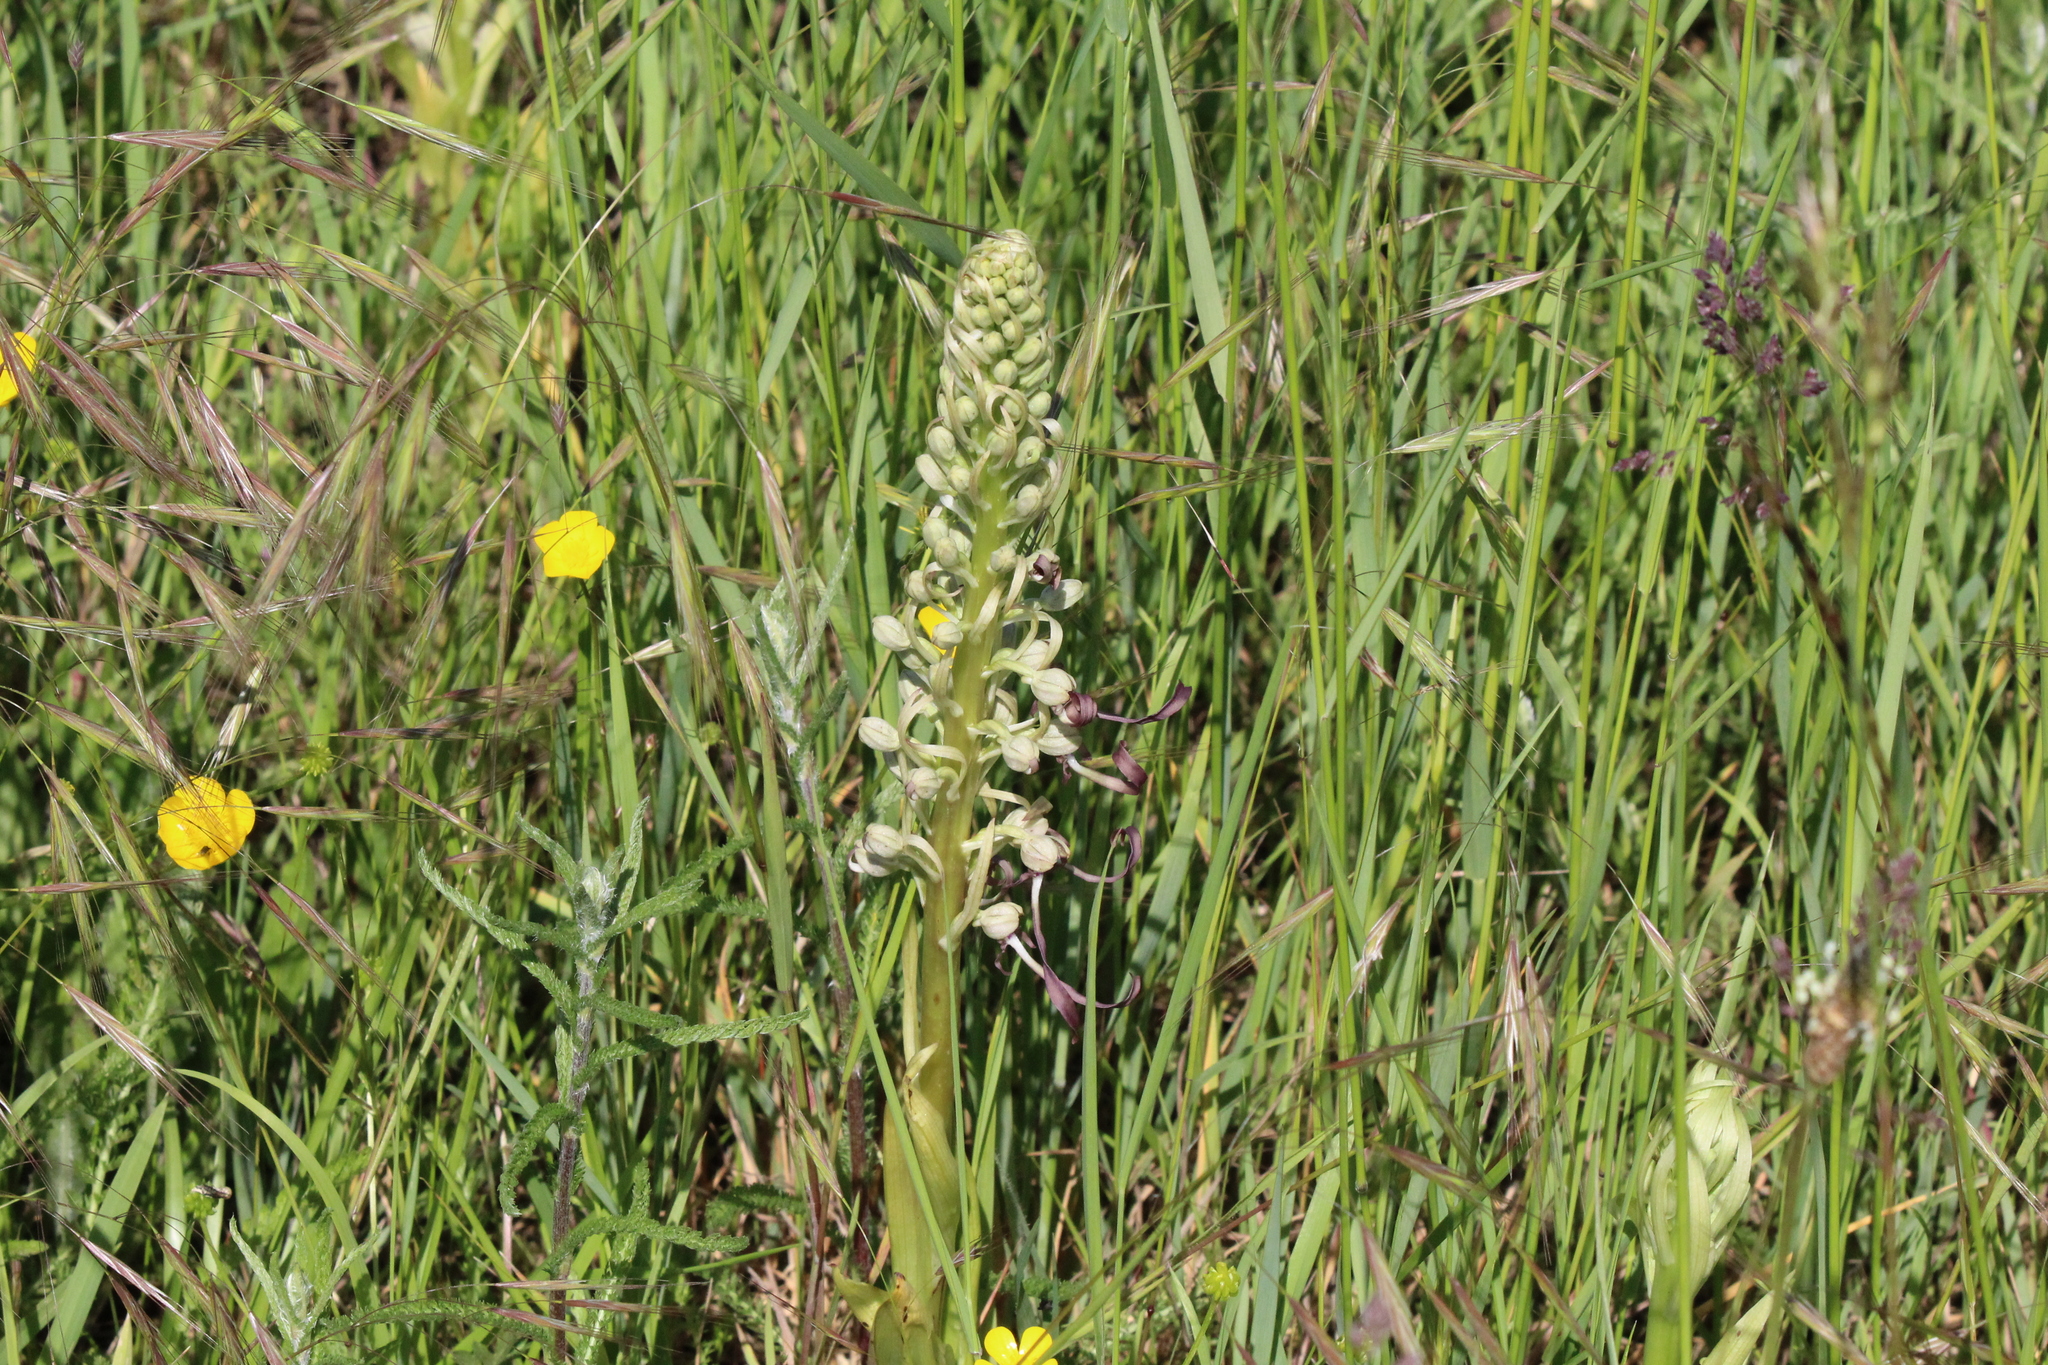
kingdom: Plantae
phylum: Tracheophyta
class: Liliopsida
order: Asparagales
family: Orchidaceae
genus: Himantoglossum
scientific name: Himantoglossum hircinum
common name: Lizard orchid
